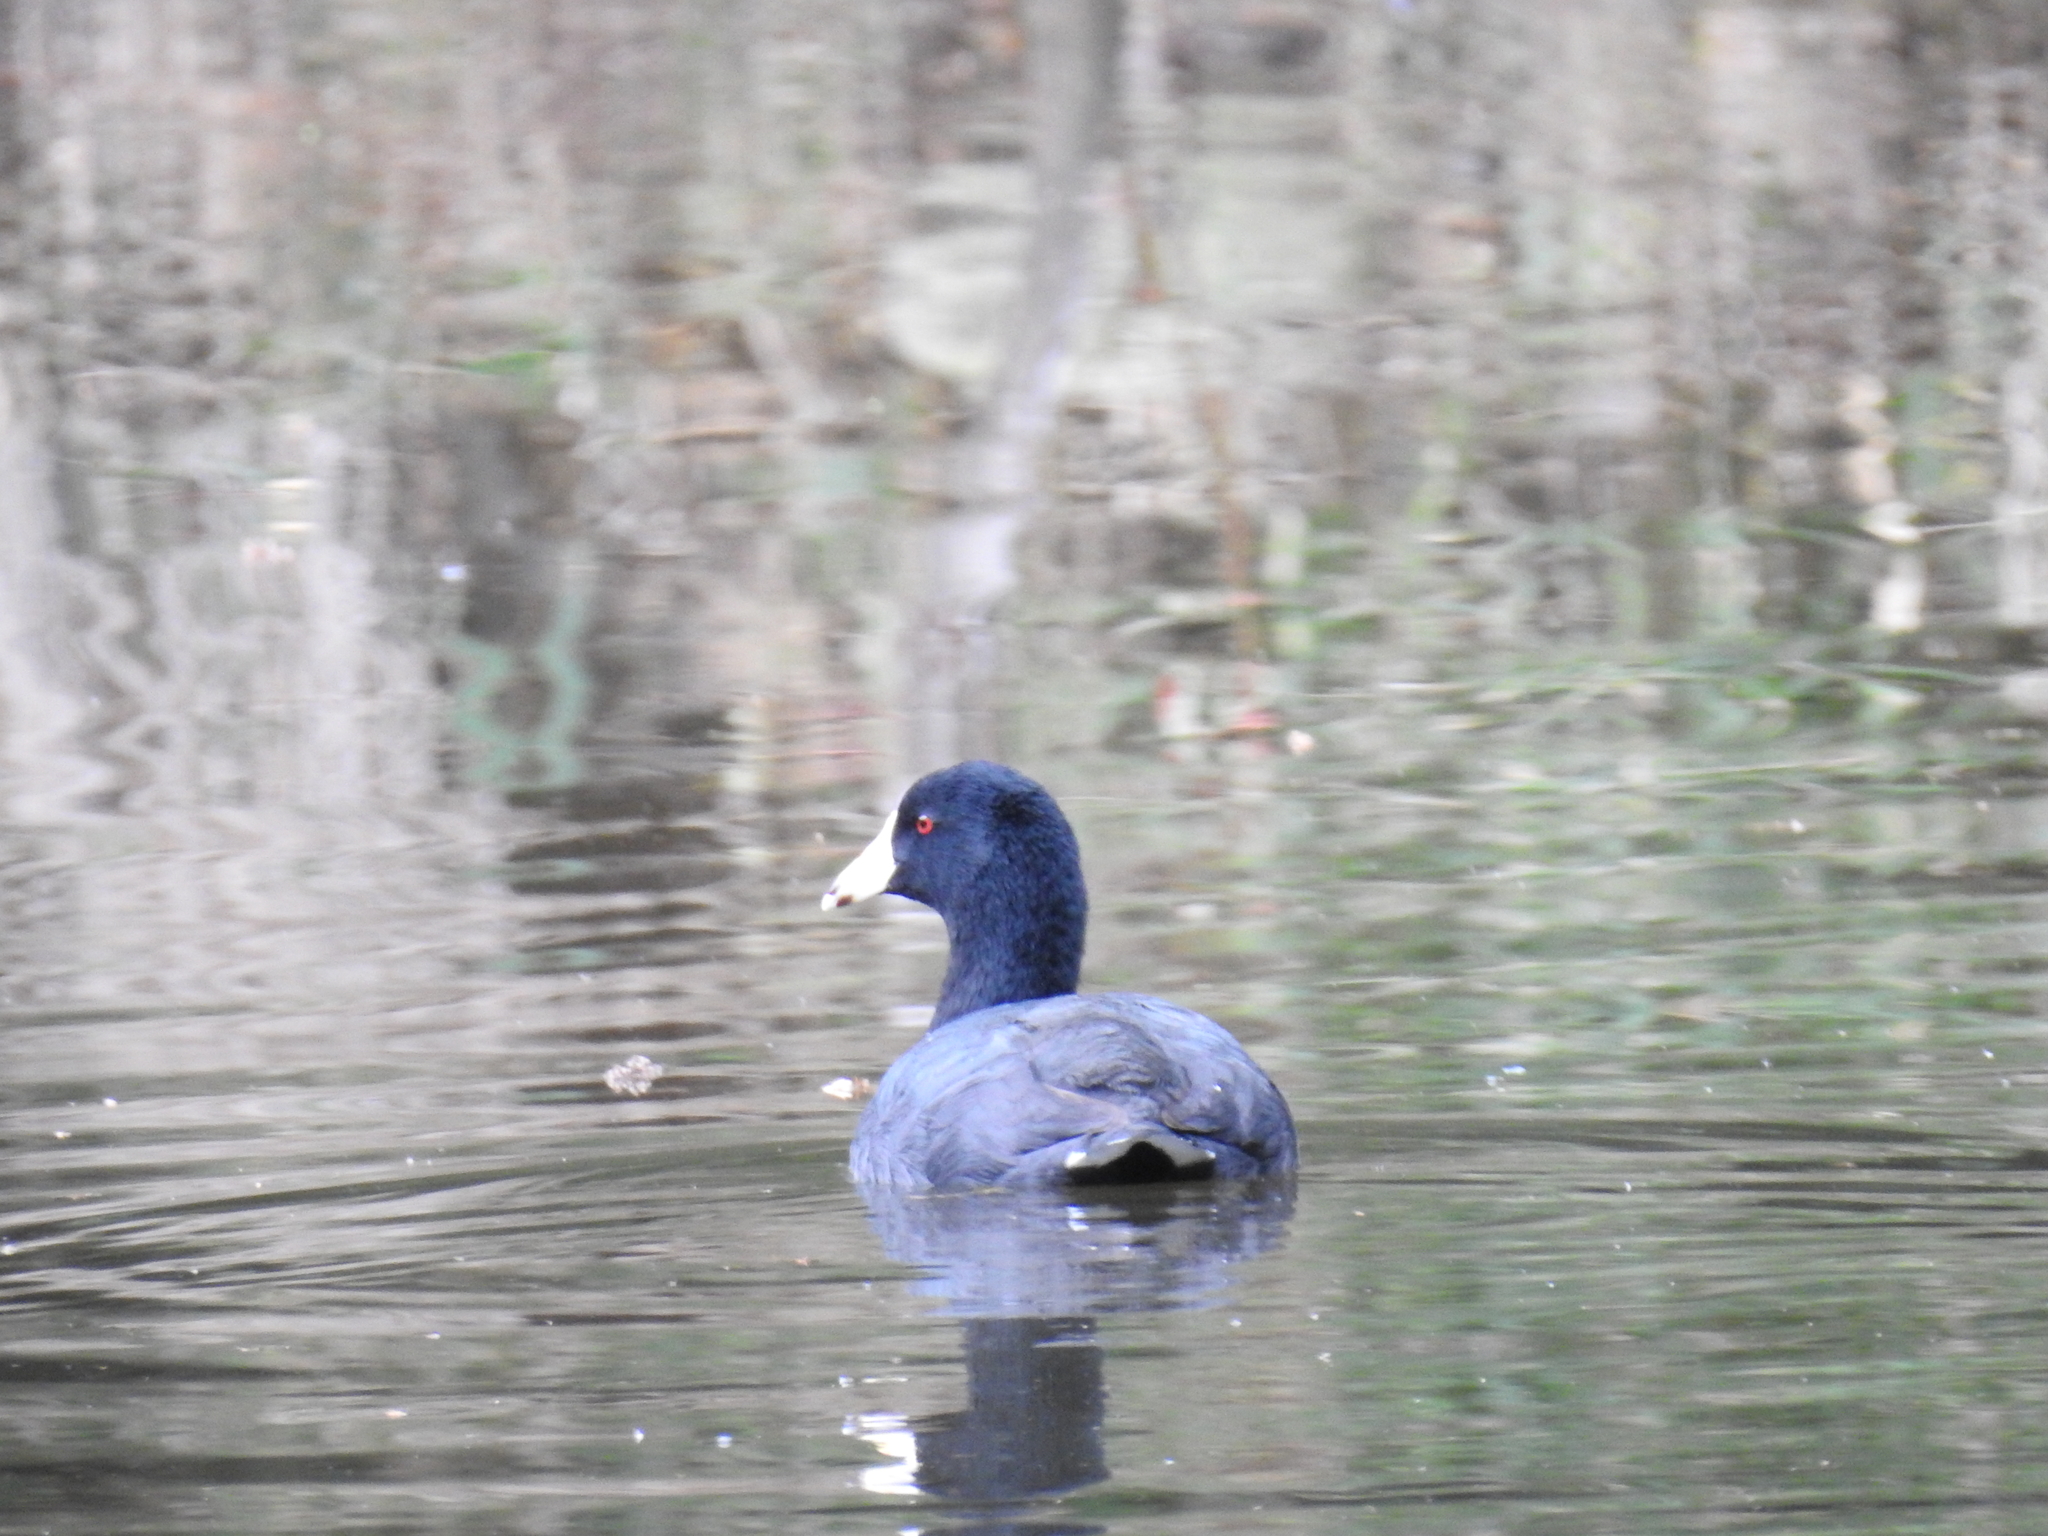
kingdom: Animalia
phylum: Chordata
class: Aves
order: Gruiformes
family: Rallidae
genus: Fulica
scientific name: Fulica americana
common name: American coot
